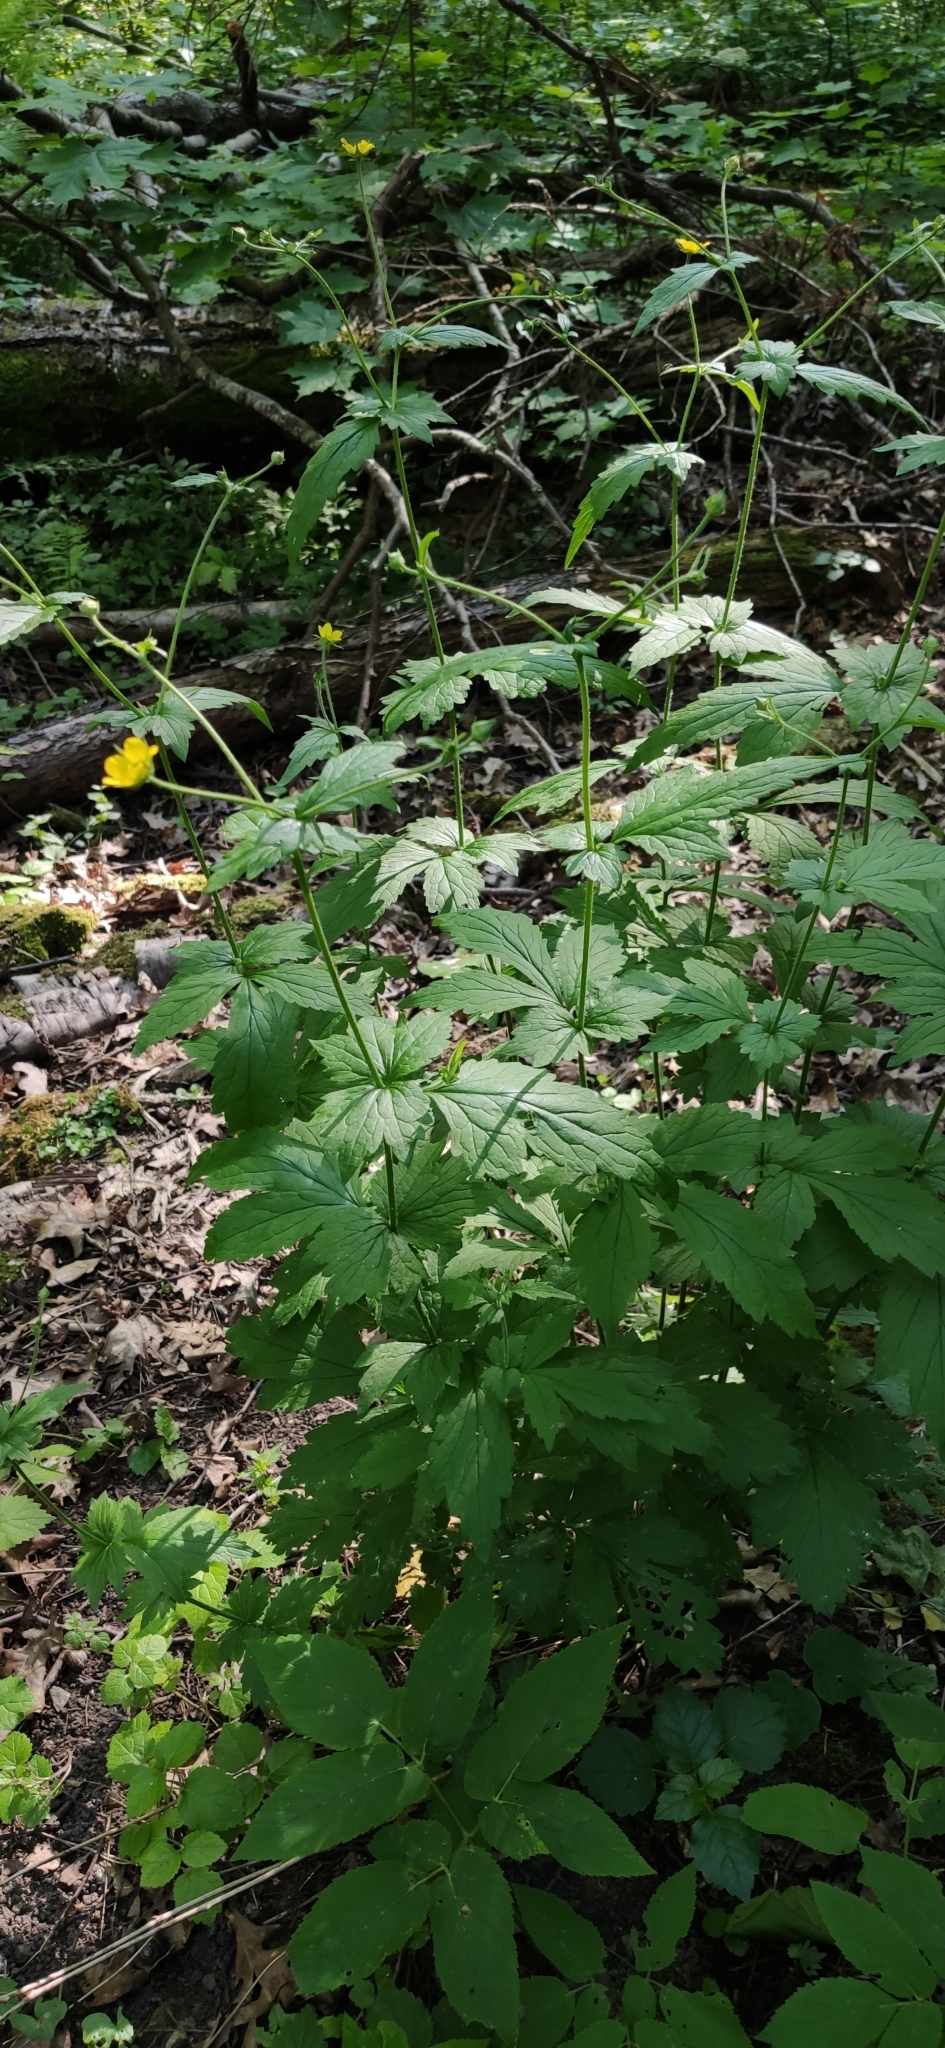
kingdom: Plantae
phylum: Tracheophyta
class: Magnoliopsida
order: Rosales
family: Rosaceae
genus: Geum
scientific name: Geum urbanum
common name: Wood avens
